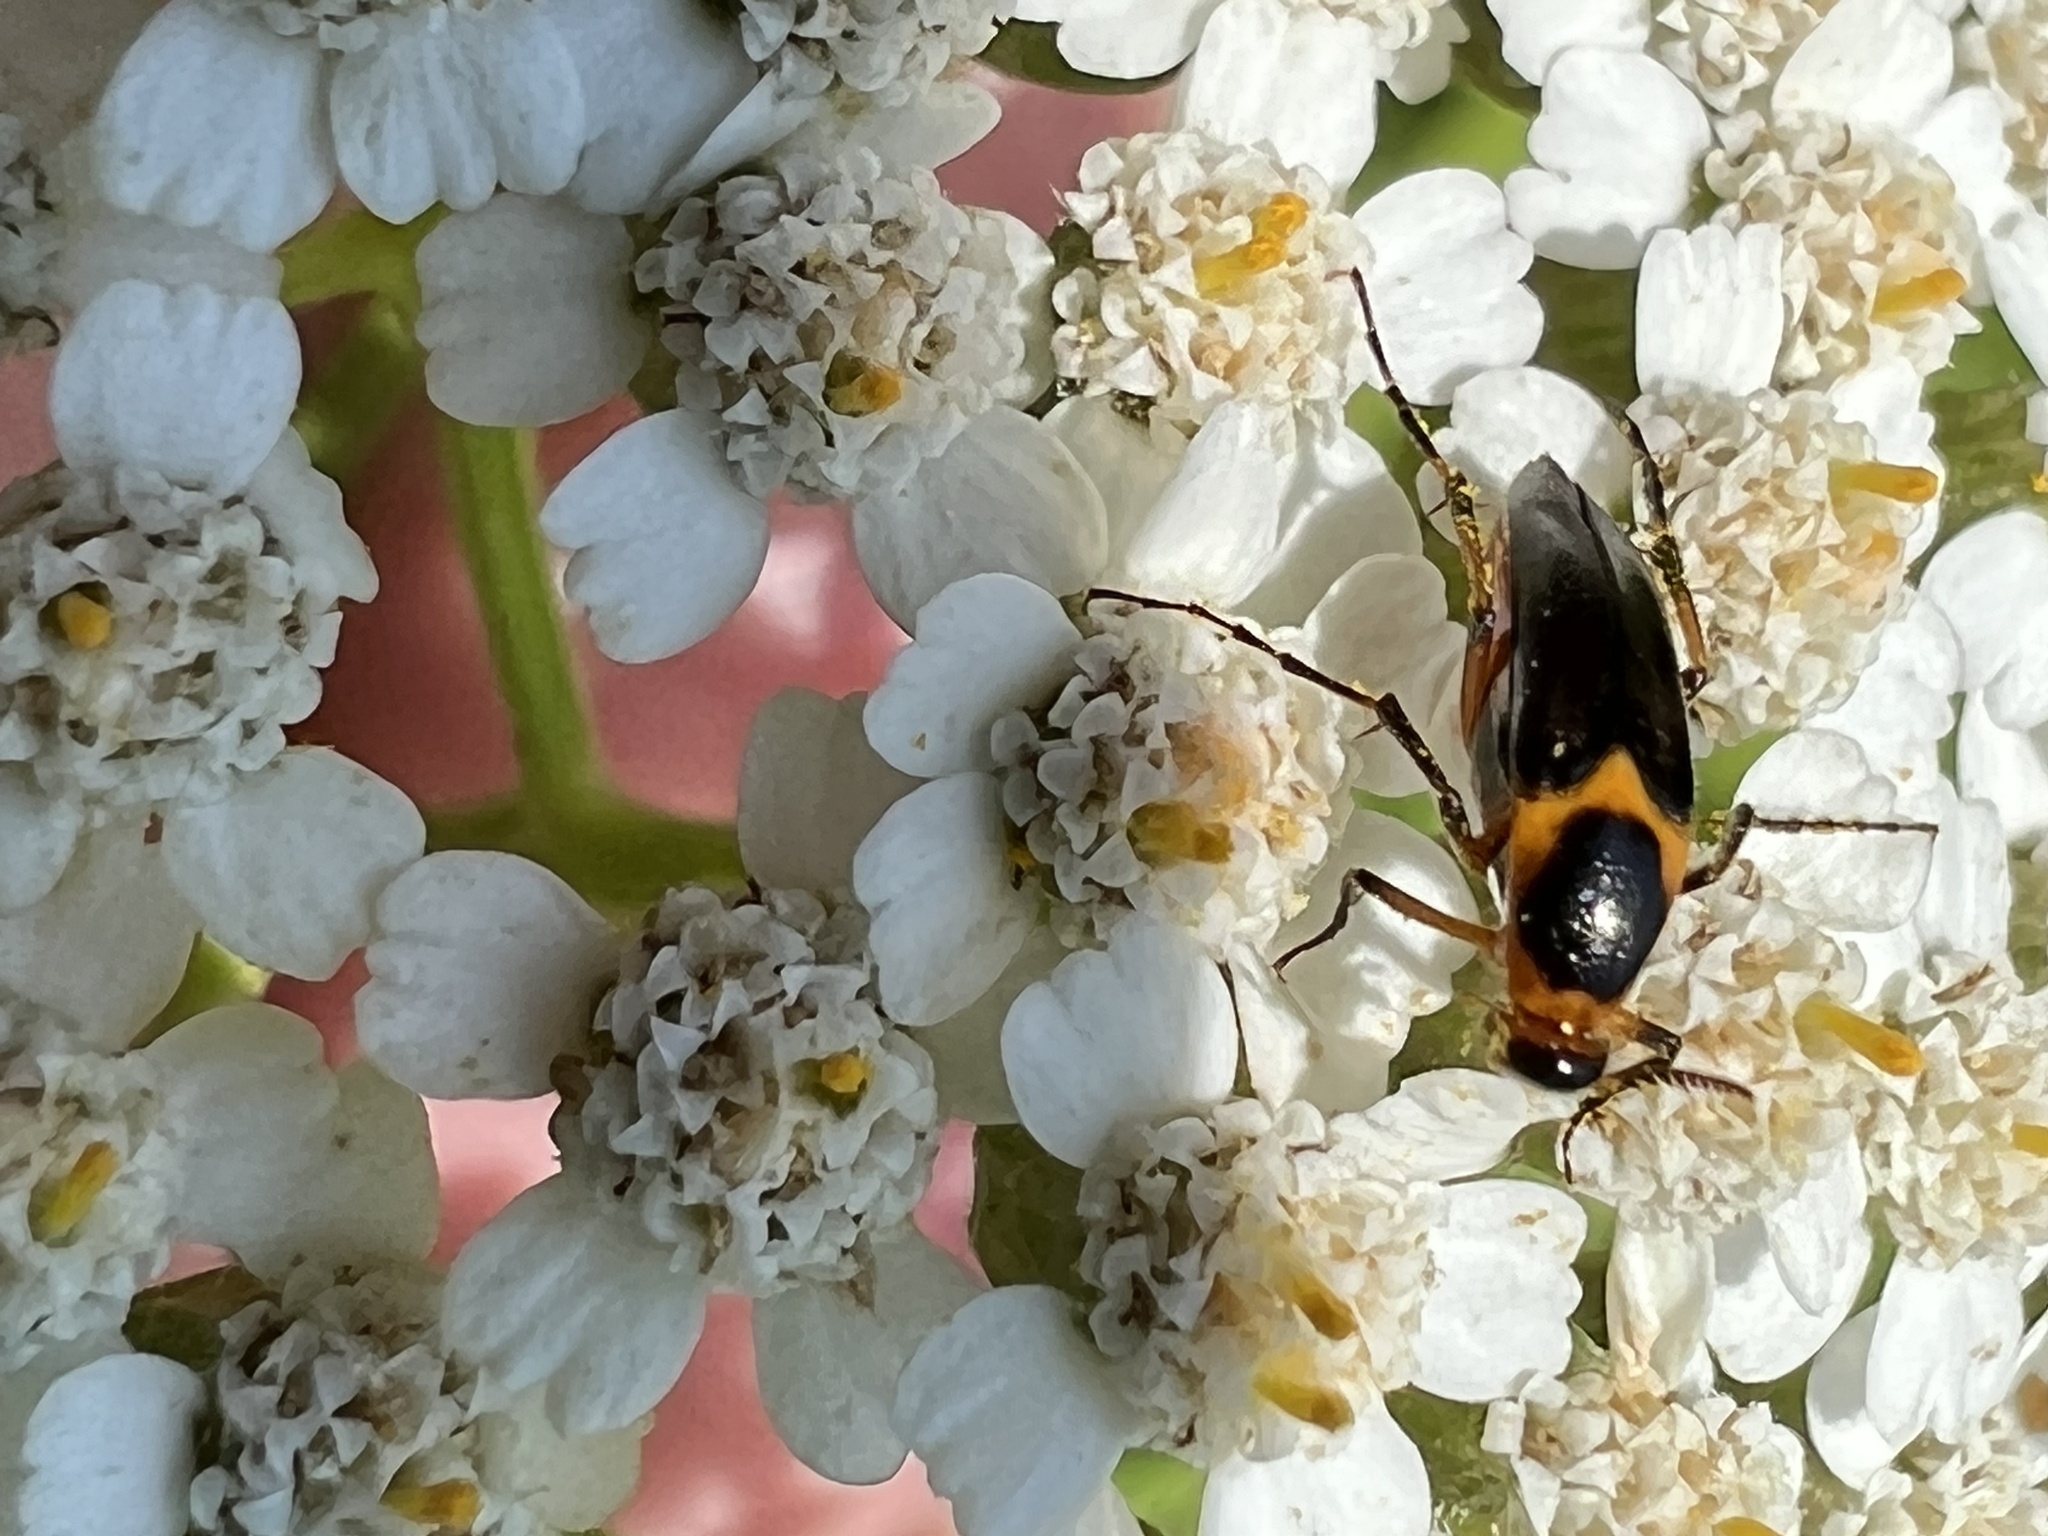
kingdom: Animalia
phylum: Arthropoda
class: Insecta
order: Coleoptera
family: Ripiphoridae
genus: Macrosiagon
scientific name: Macrosiagon limbatum
